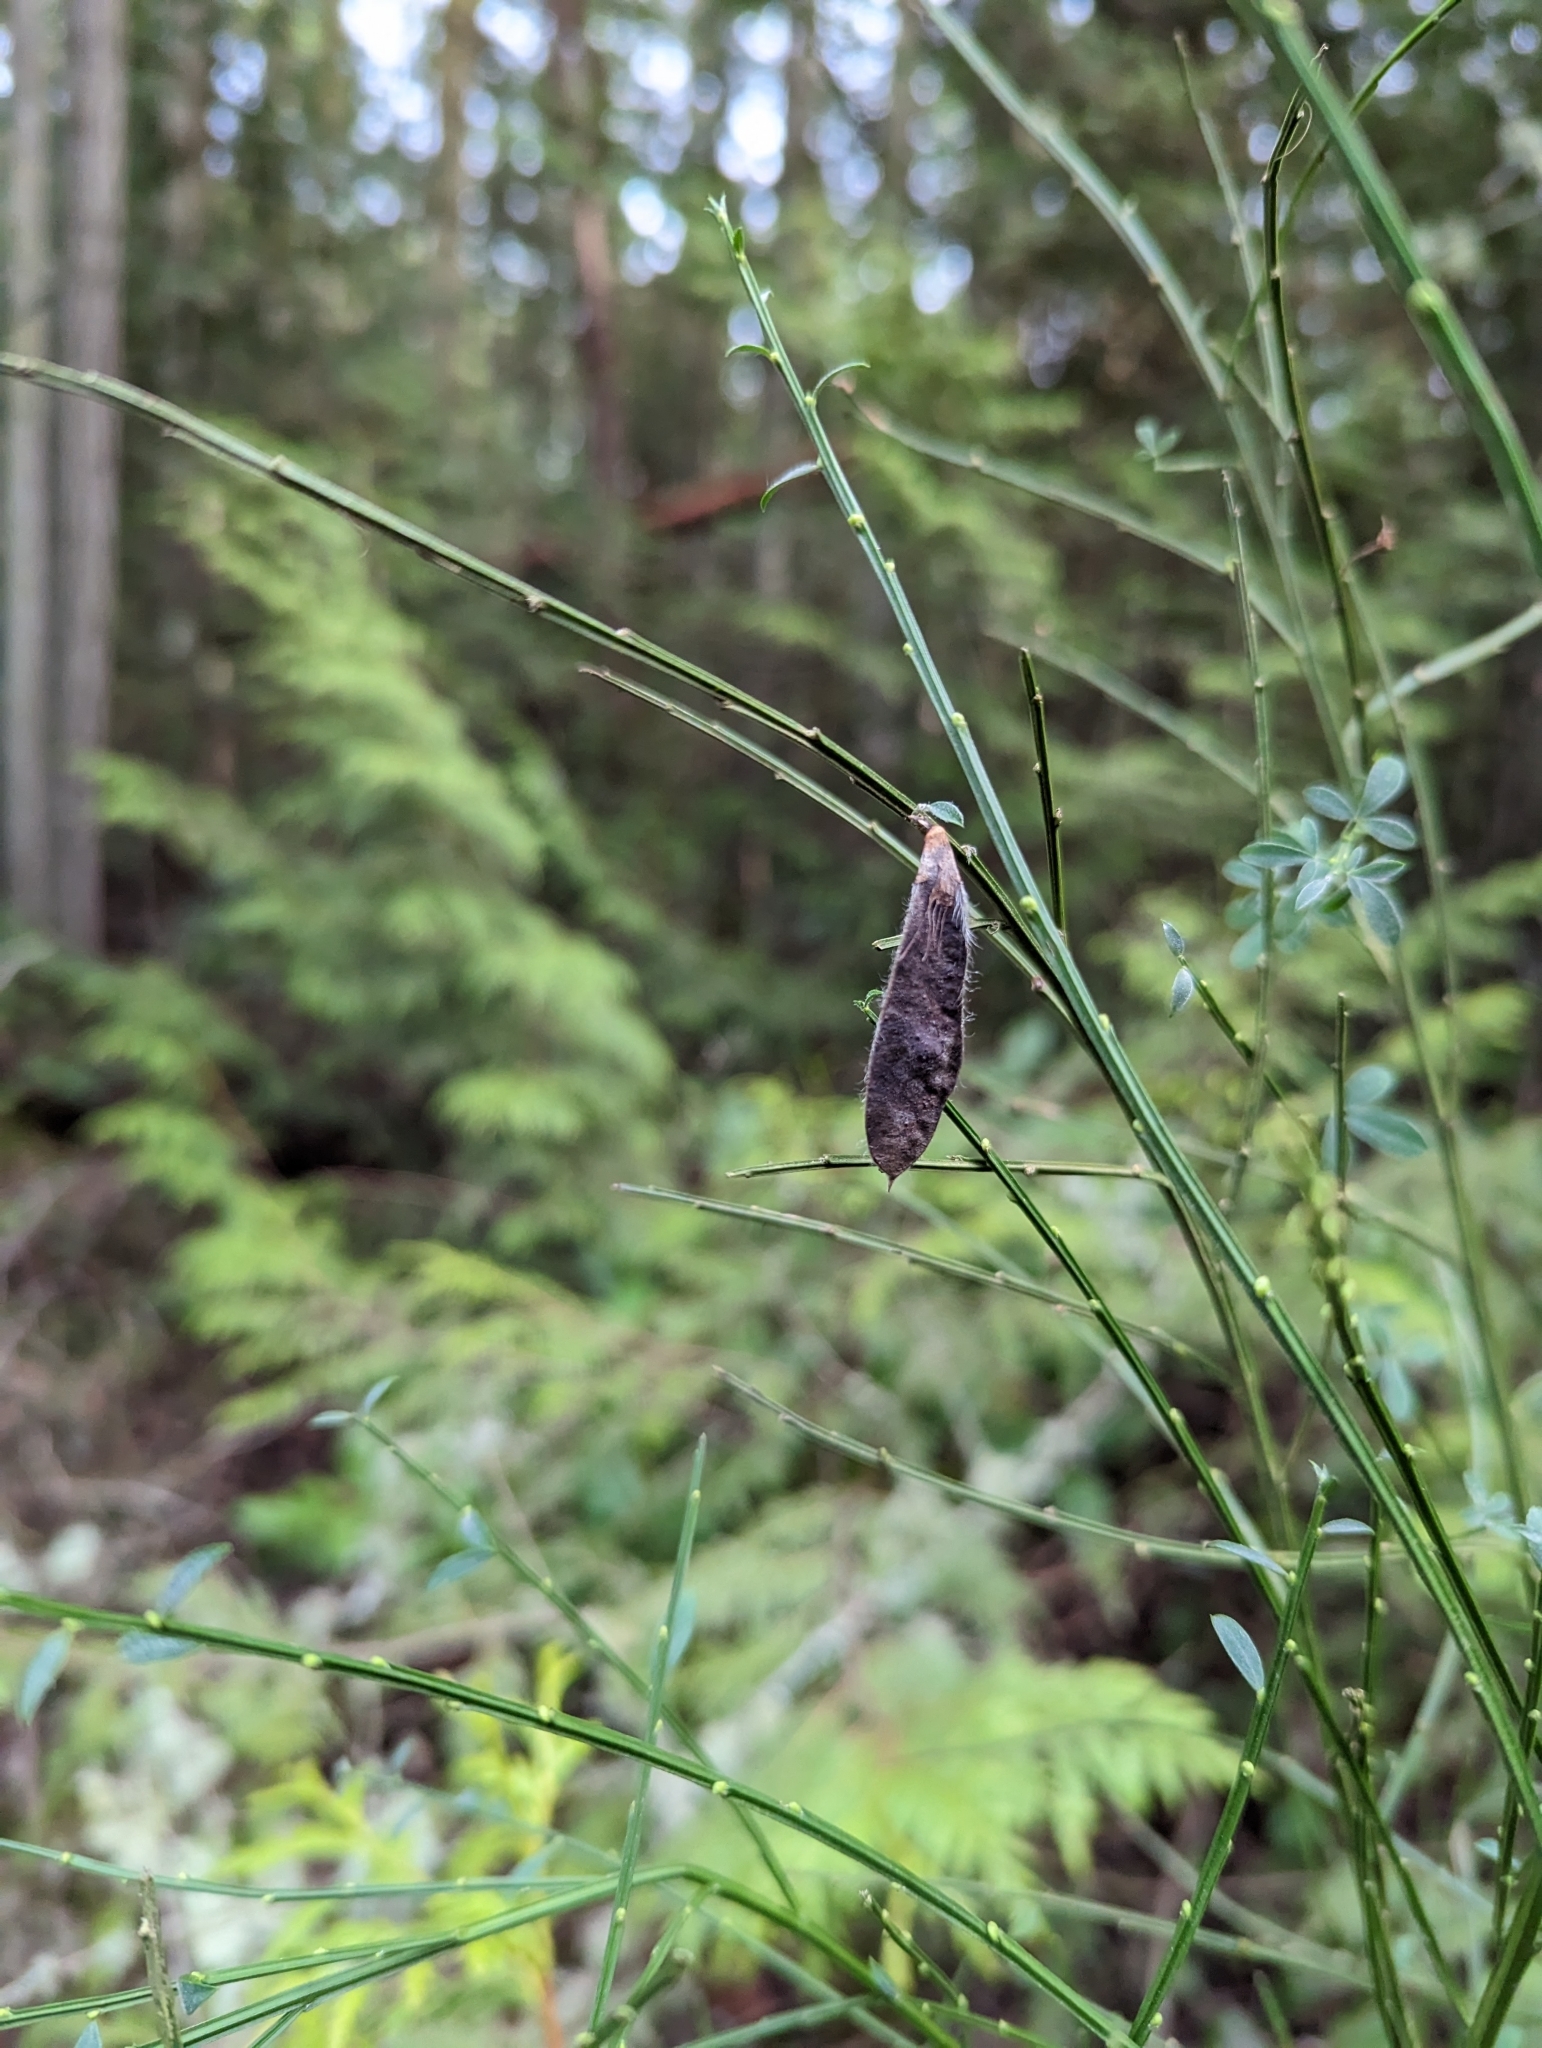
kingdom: Plantae
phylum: Tracheophyta
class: Magnoliopsida
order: Fabales
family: Fabaceae
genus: Cytisus
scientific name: Cytisus scoparius
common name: Scotch broom
